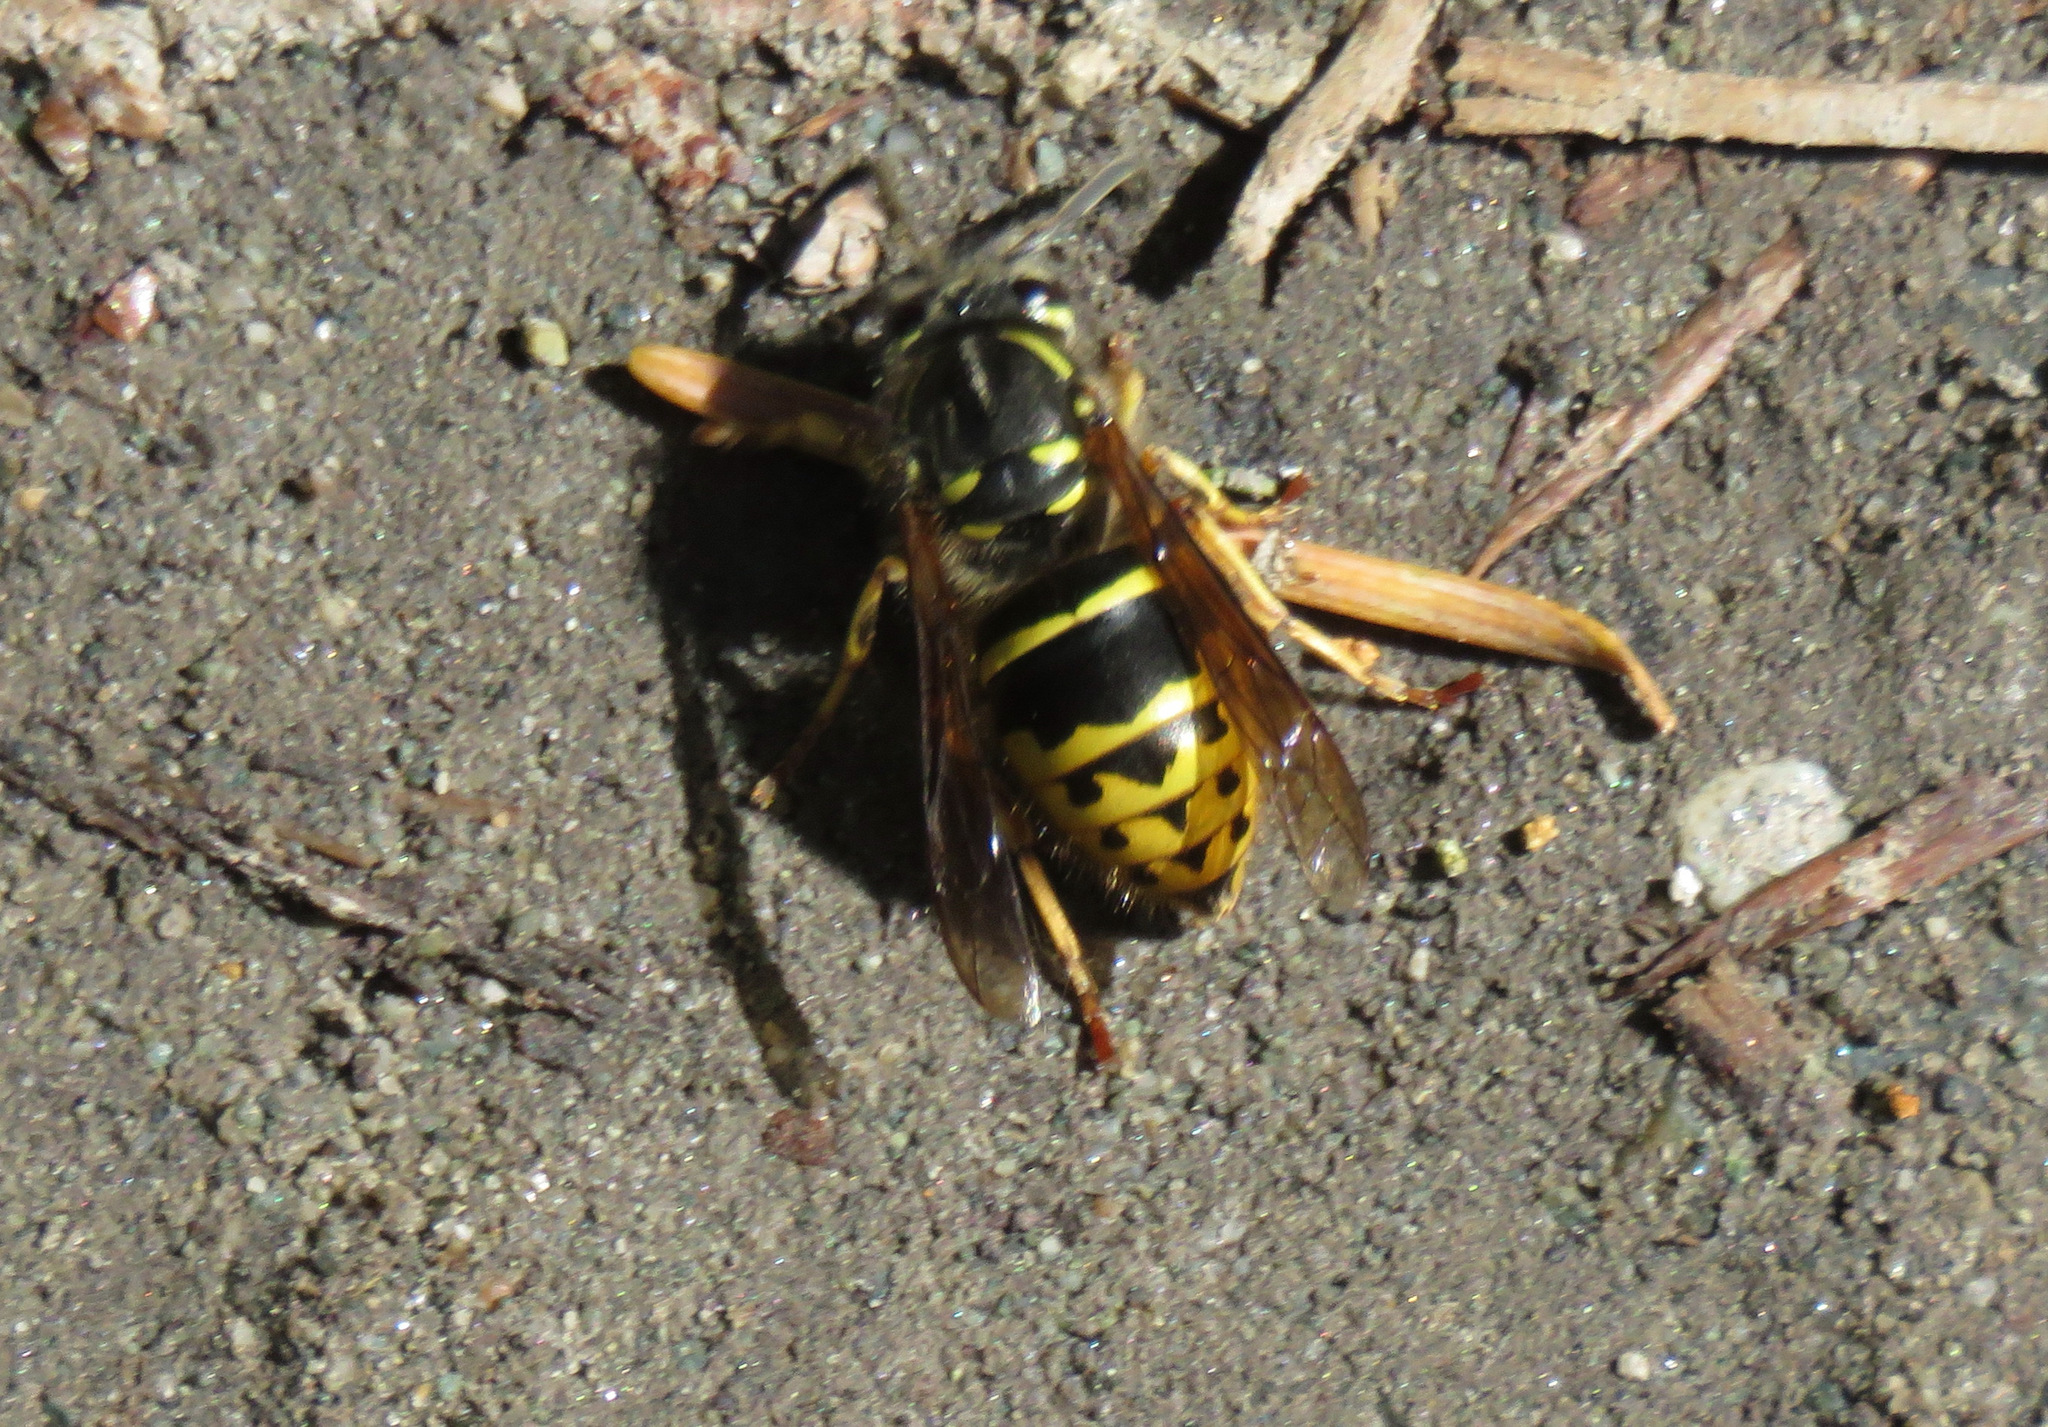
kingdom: Animalia
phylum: Arthropoda
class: Insecta
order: Hymenoptera
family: Vespidae
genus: Vespula
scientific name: Vespula alascensis
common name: Alaska yellowjacket
